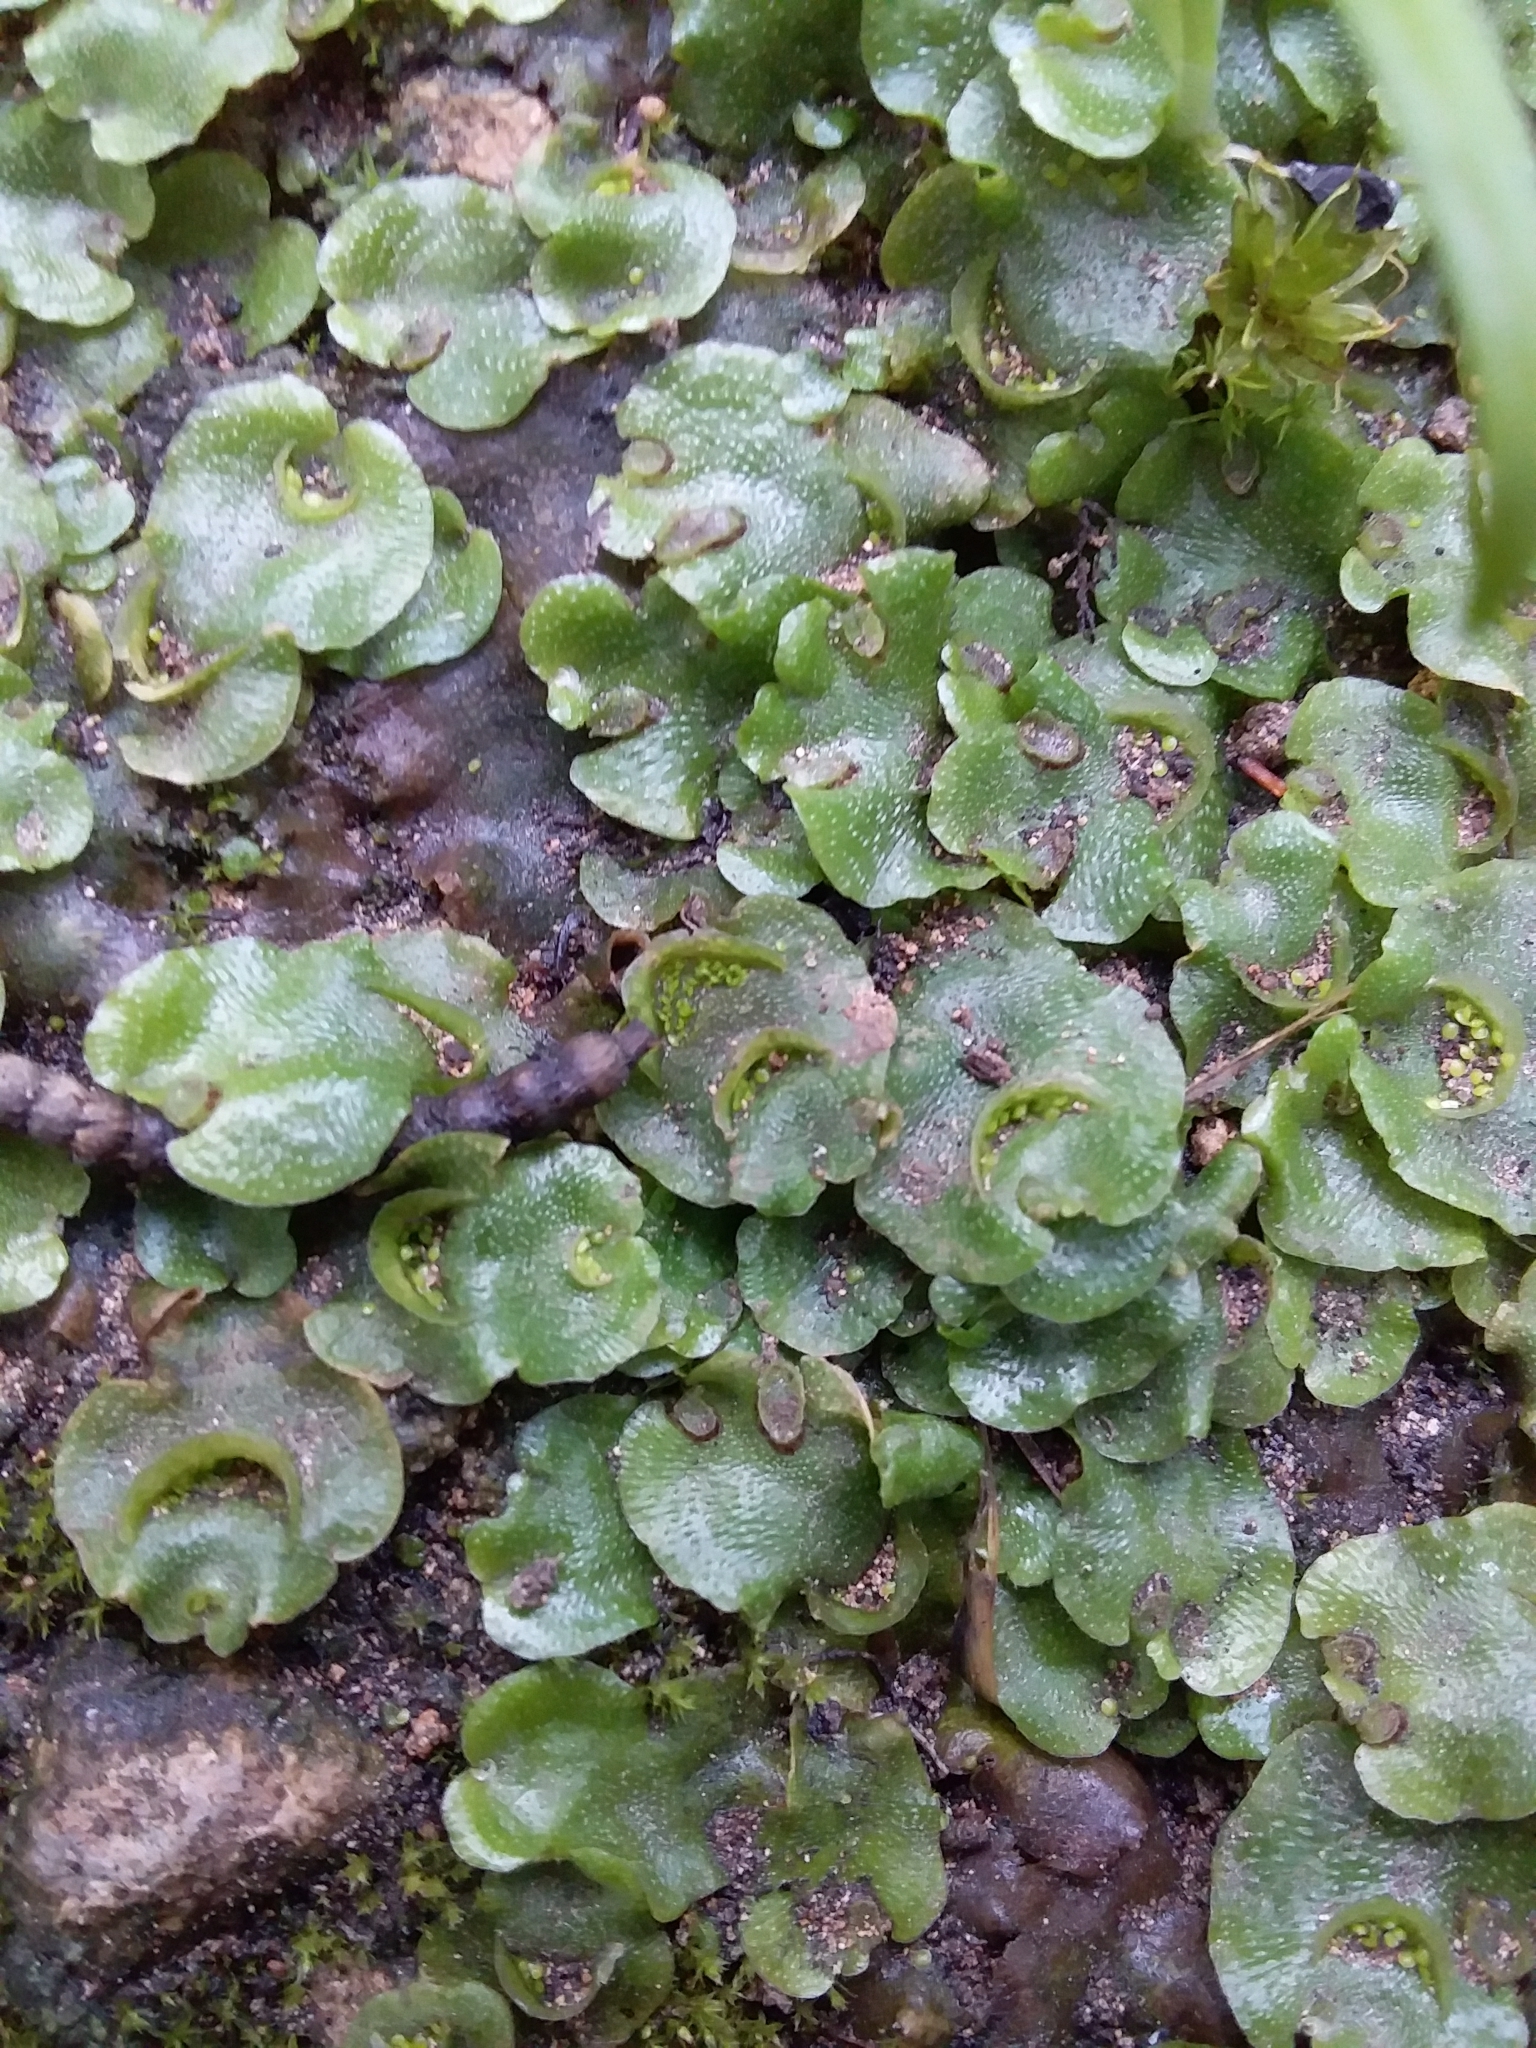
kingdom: Plantae
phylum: Marchantiophyta
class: Marchantiopsida
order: Lunulariales
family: Lunulariaceae
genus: Lunularia
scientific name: Lunularia cruciata
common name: Crescent-cup liverwort
